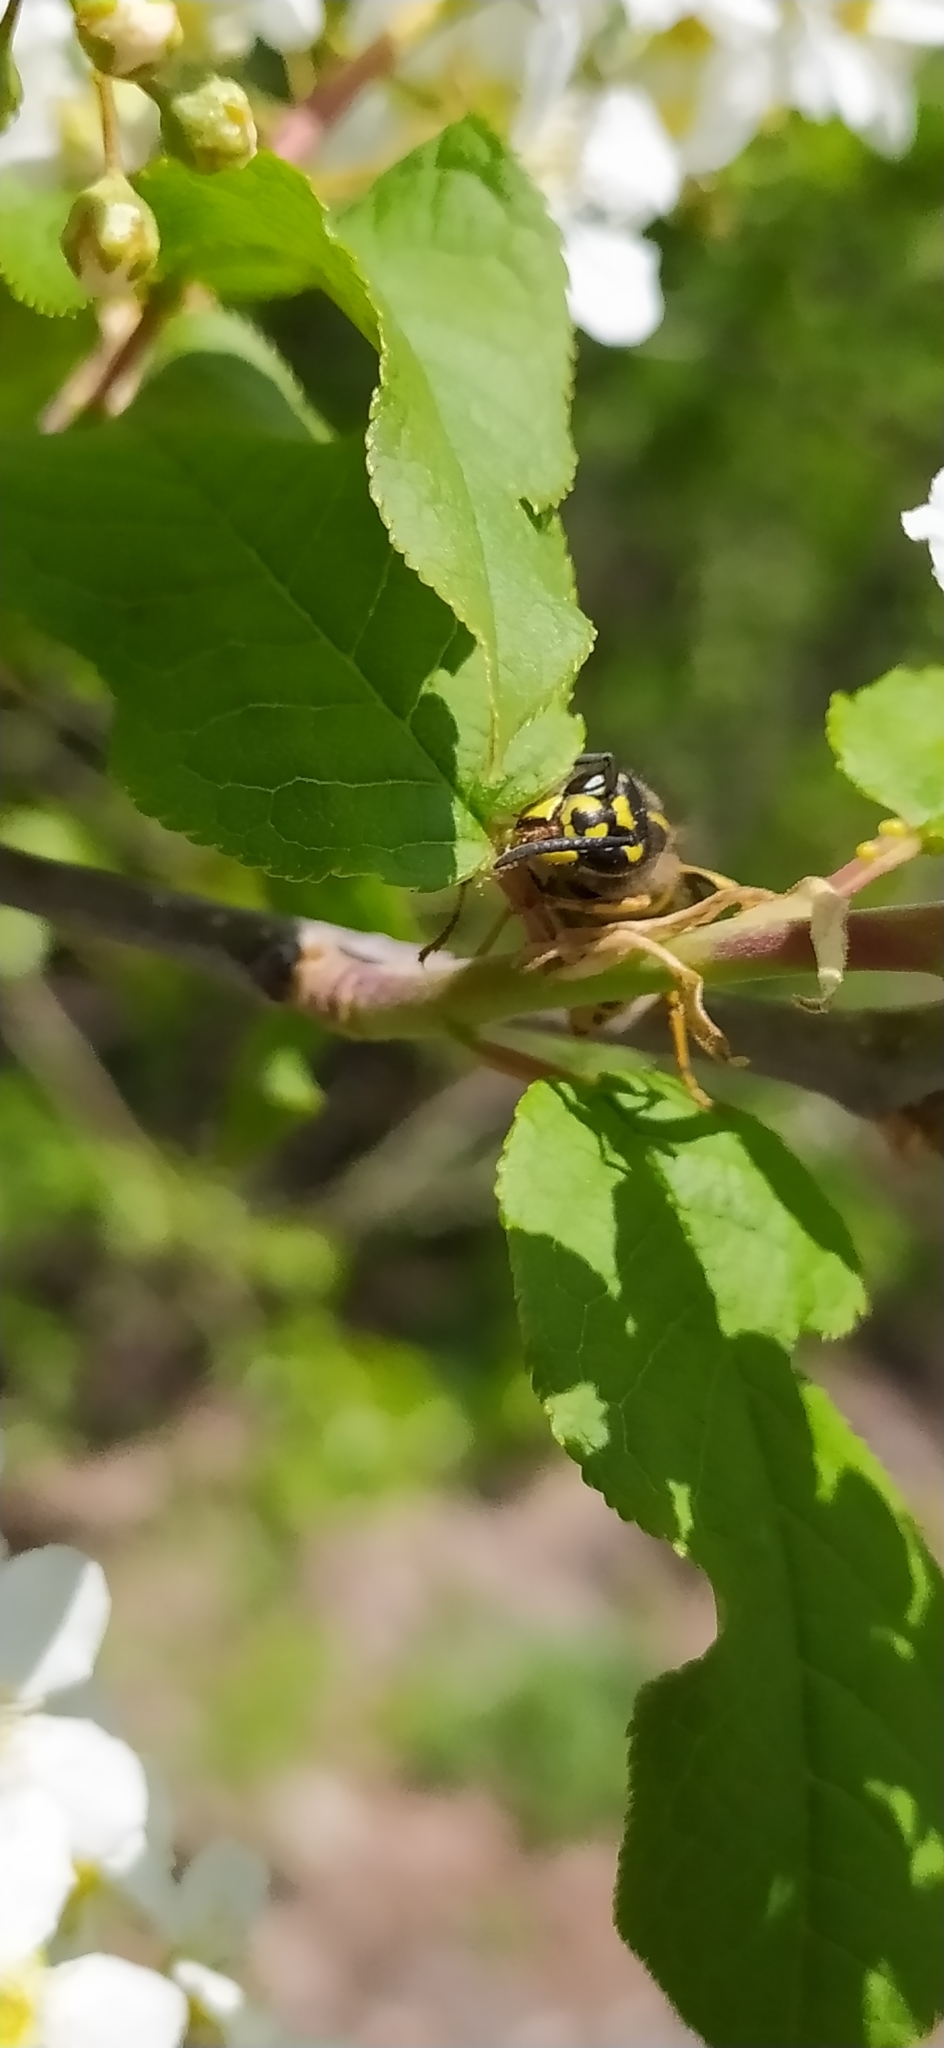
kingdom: Animalia
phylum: Arthropoda
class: Insecta
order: Hymenoptera
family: Vespidae
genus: Vespula
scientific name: Vespula vulgaris
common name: Common wasp
